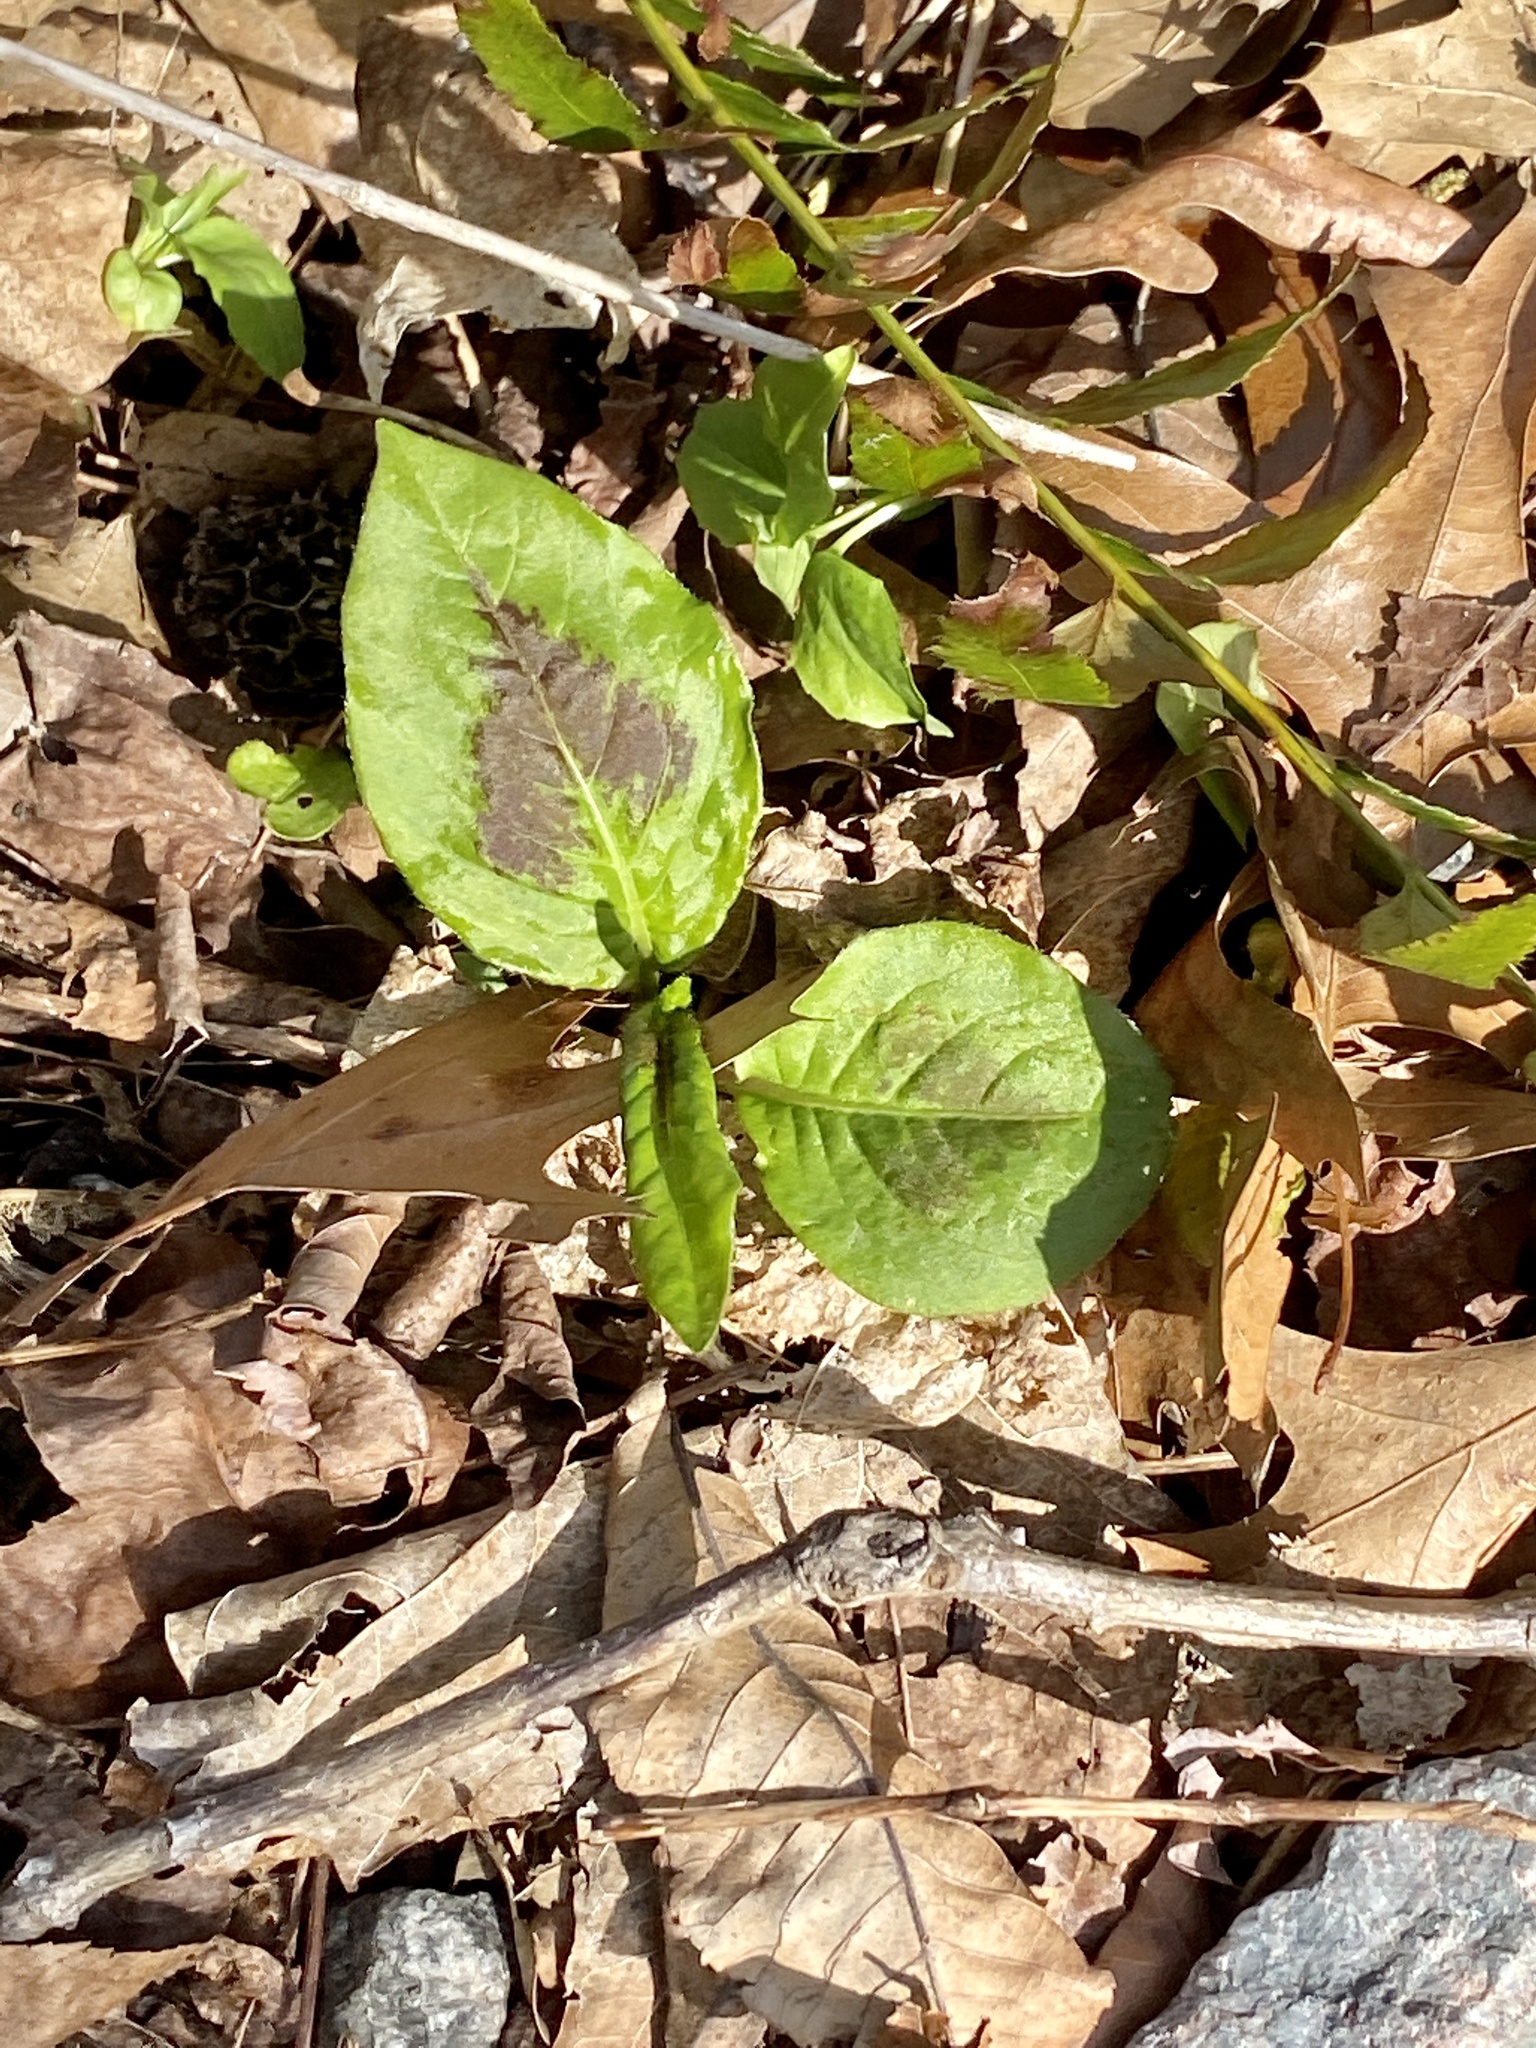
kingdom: Plantae
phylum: Tracheophyta
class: Magnoliopsida
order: Caryophyllales
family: Polygonaceae
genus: Persicaria
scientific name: Persicaria virginiana
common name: Jumpseed
